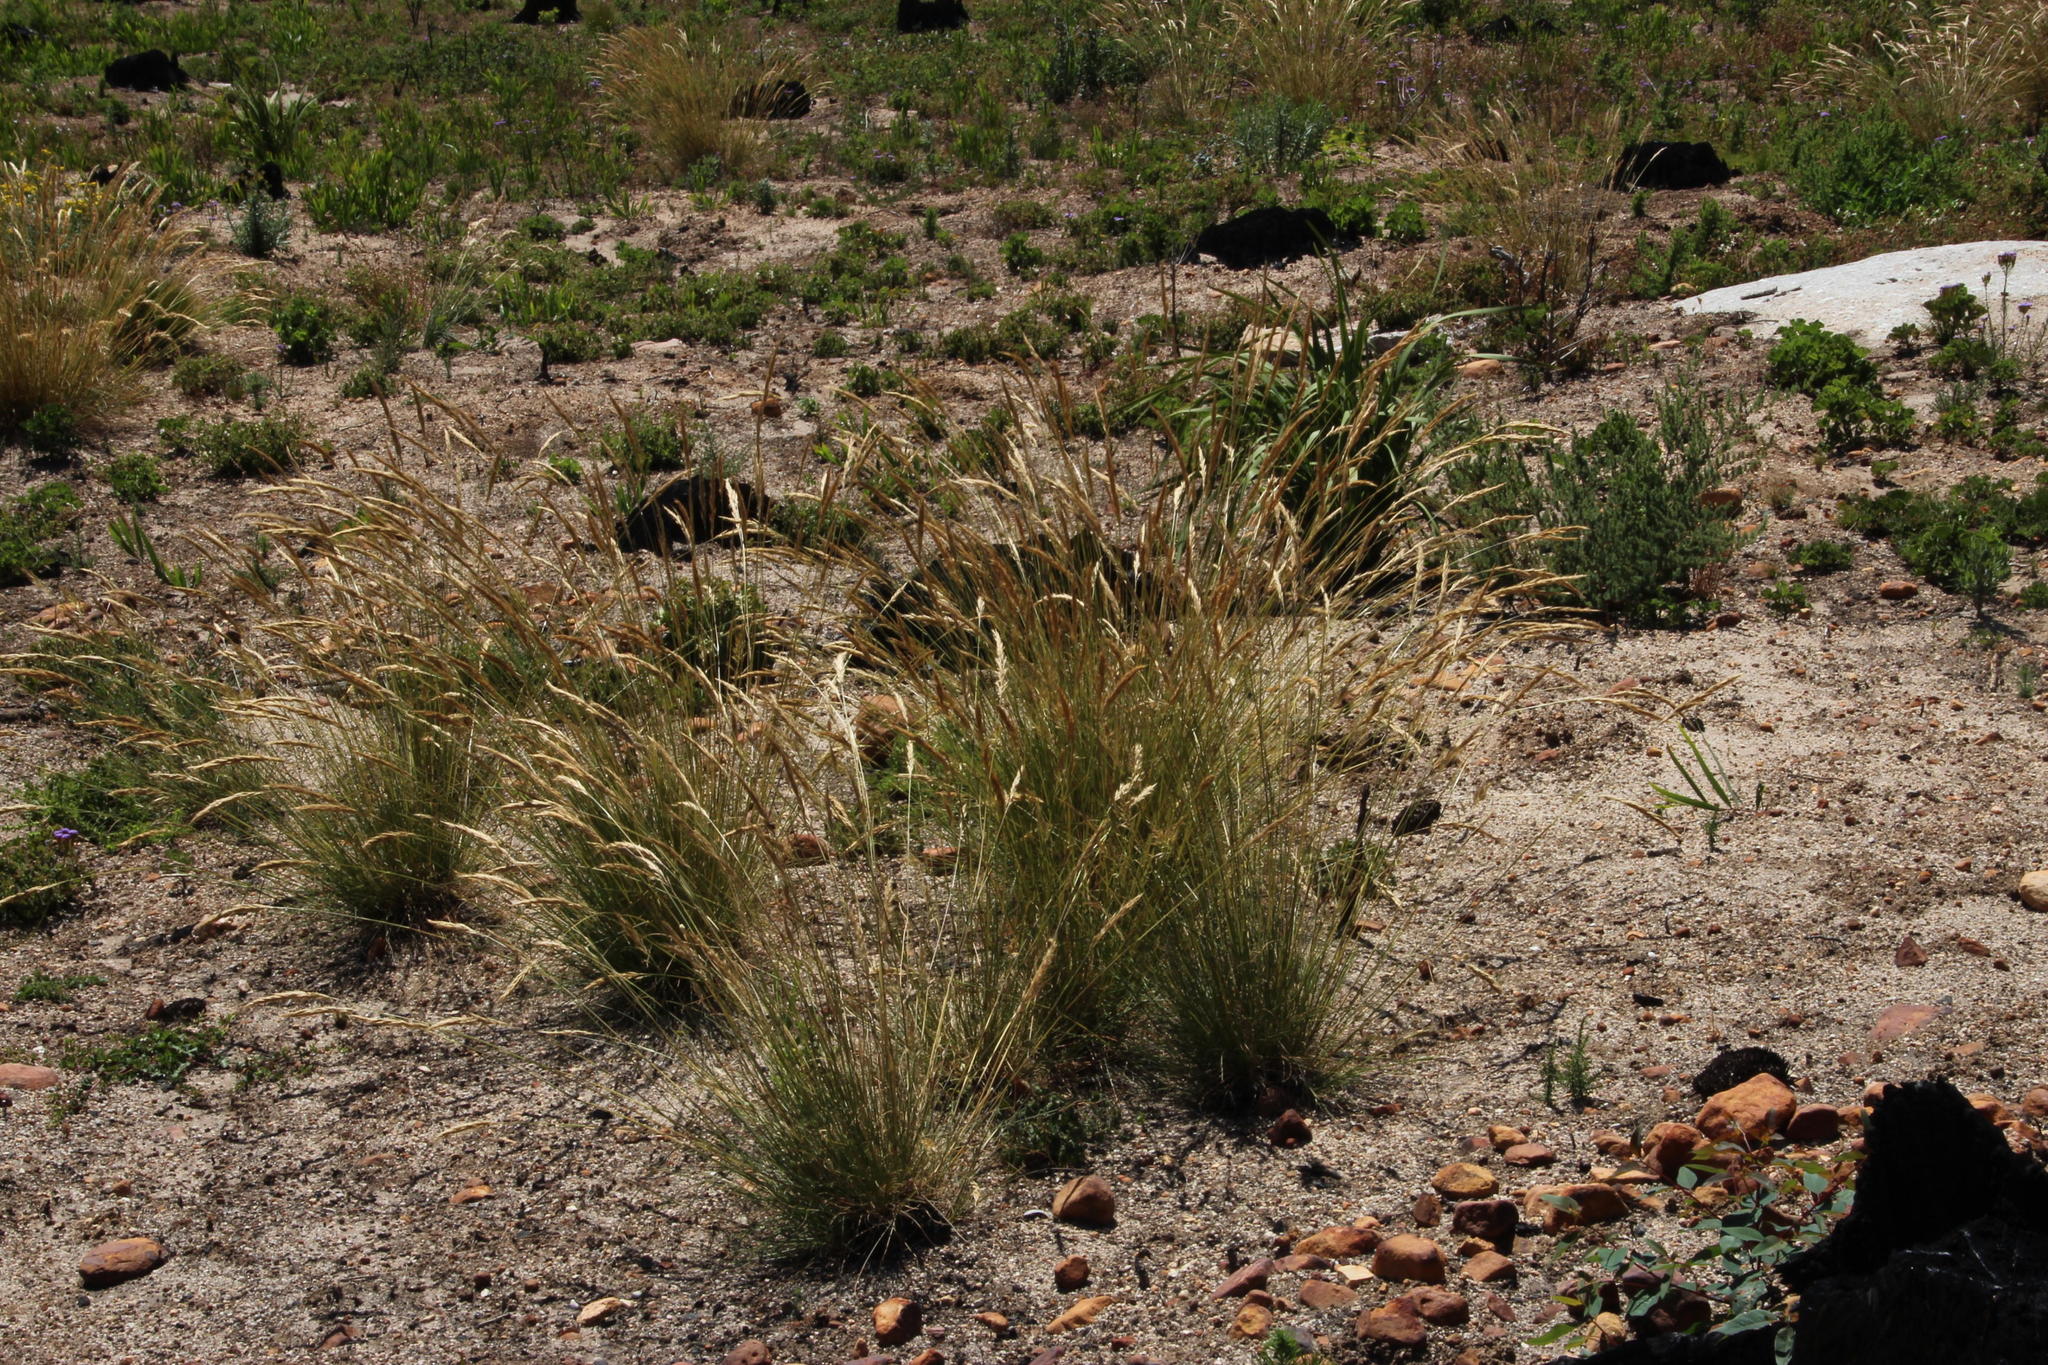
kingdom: Plantae
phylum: Tracheophyta
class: Liliopsida
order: Poales
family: Poaceae
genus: Tenaxia
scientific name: Tenaxia stricta
